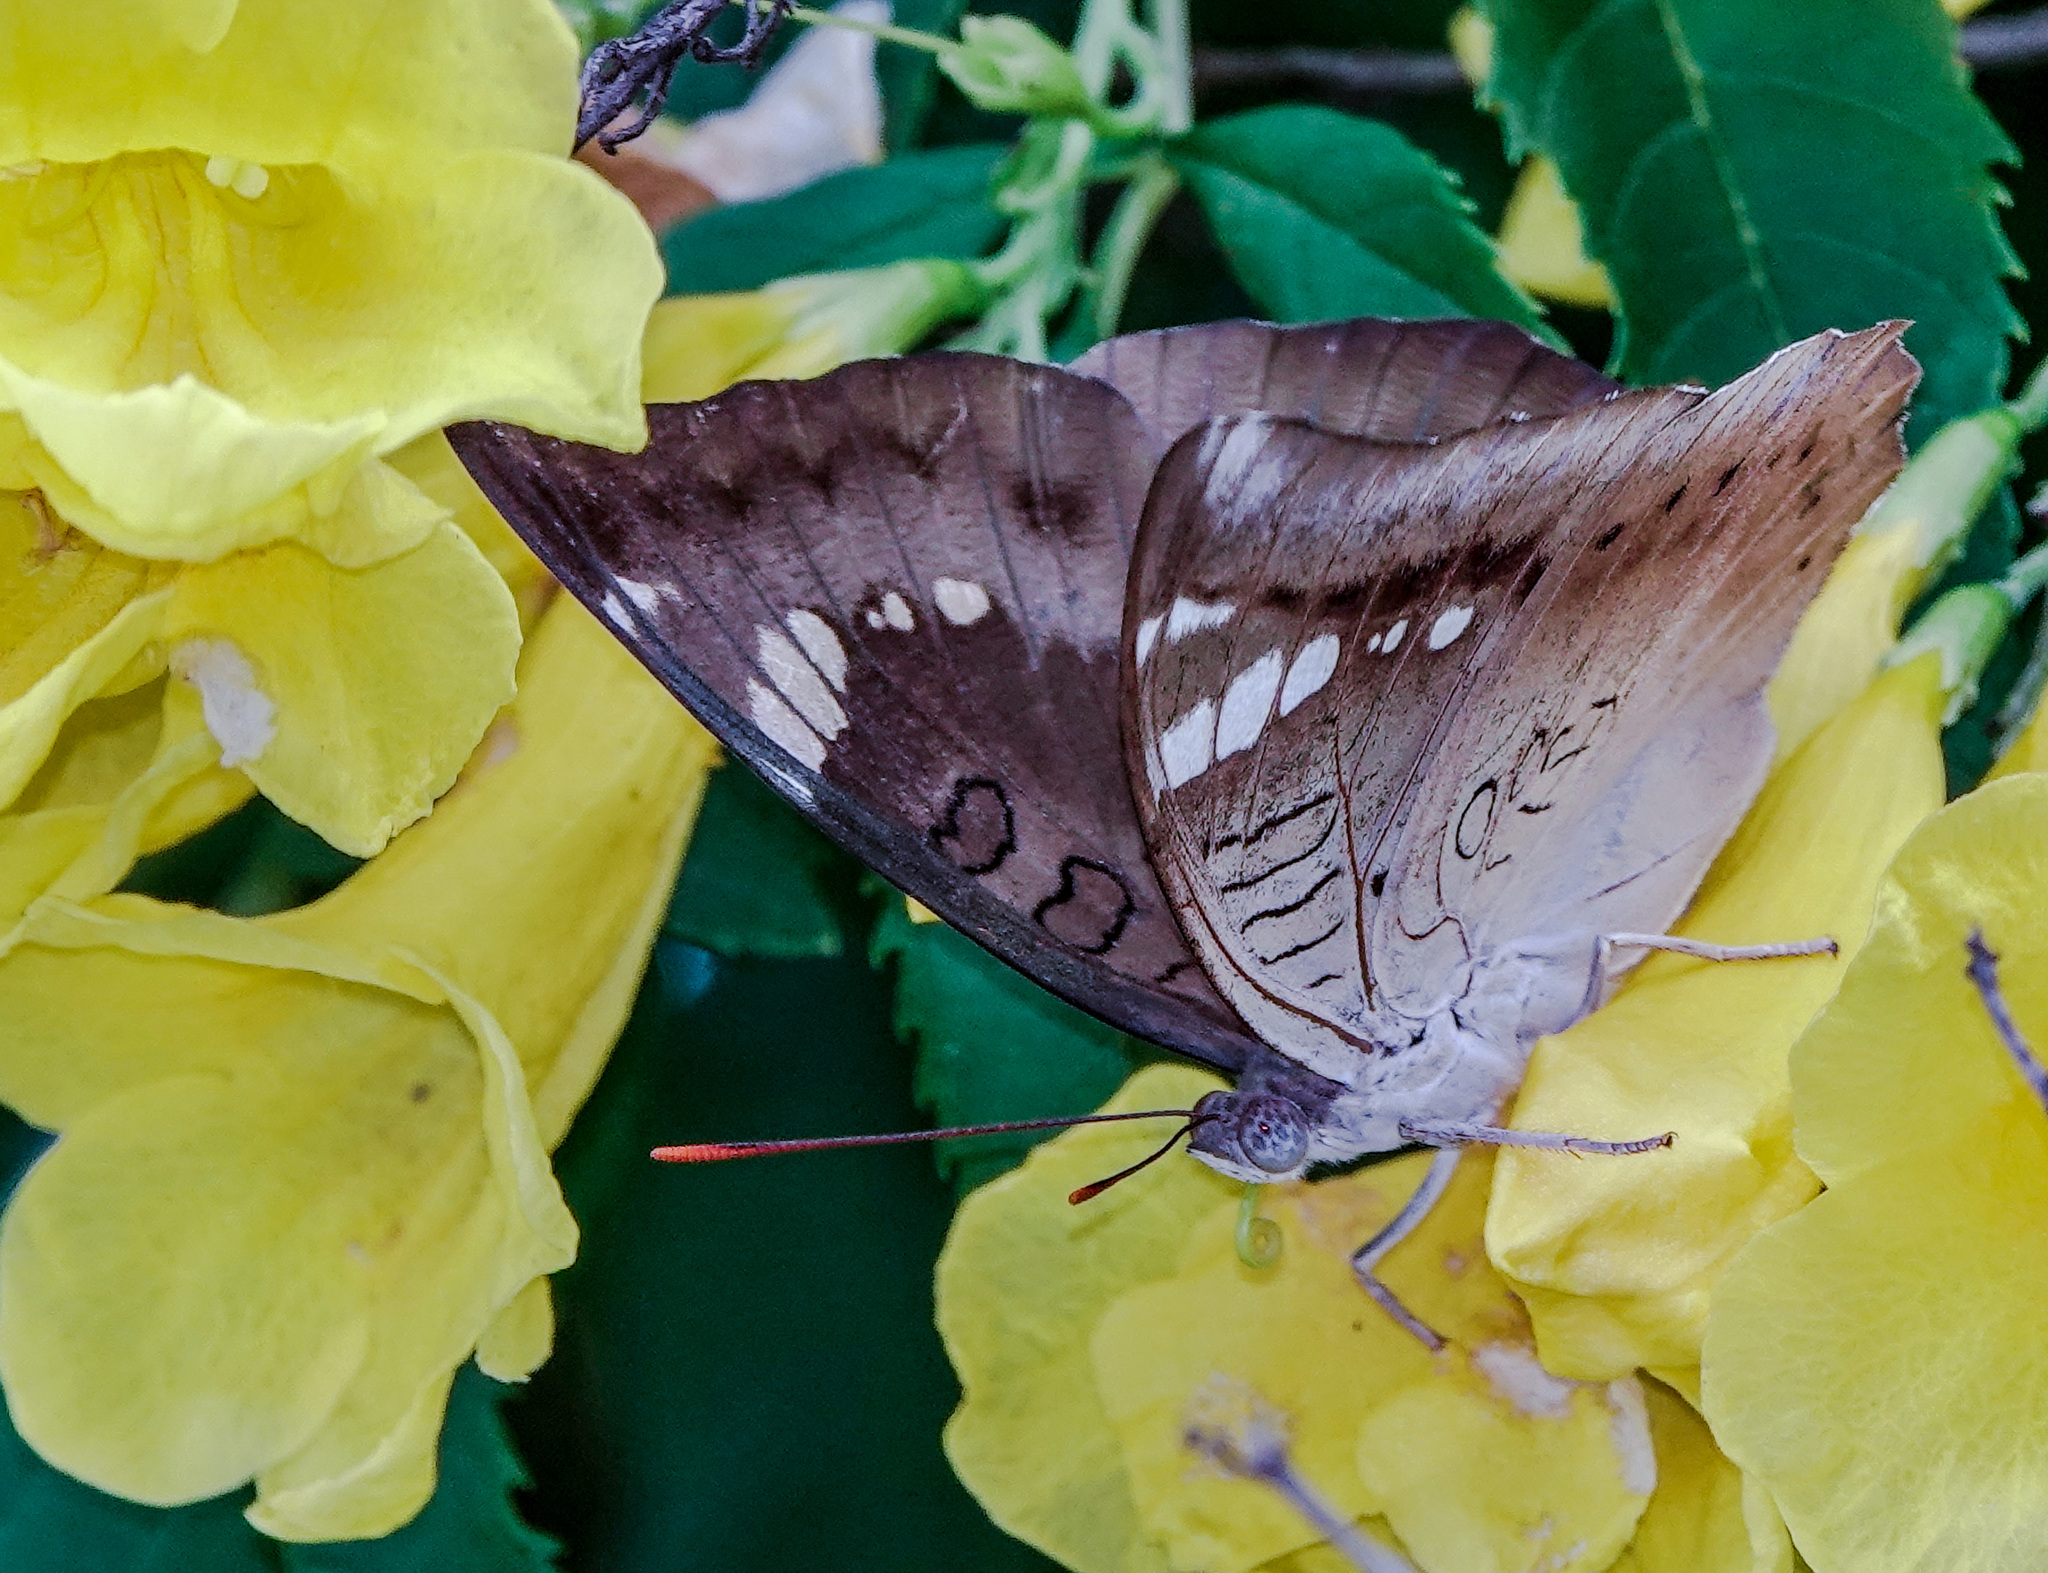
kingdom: Animalia
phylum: Arthropoda
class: Insecta
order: Lepidoptera
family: Nymphalidae
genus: Euthalia
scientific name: Euthalia aconthea
